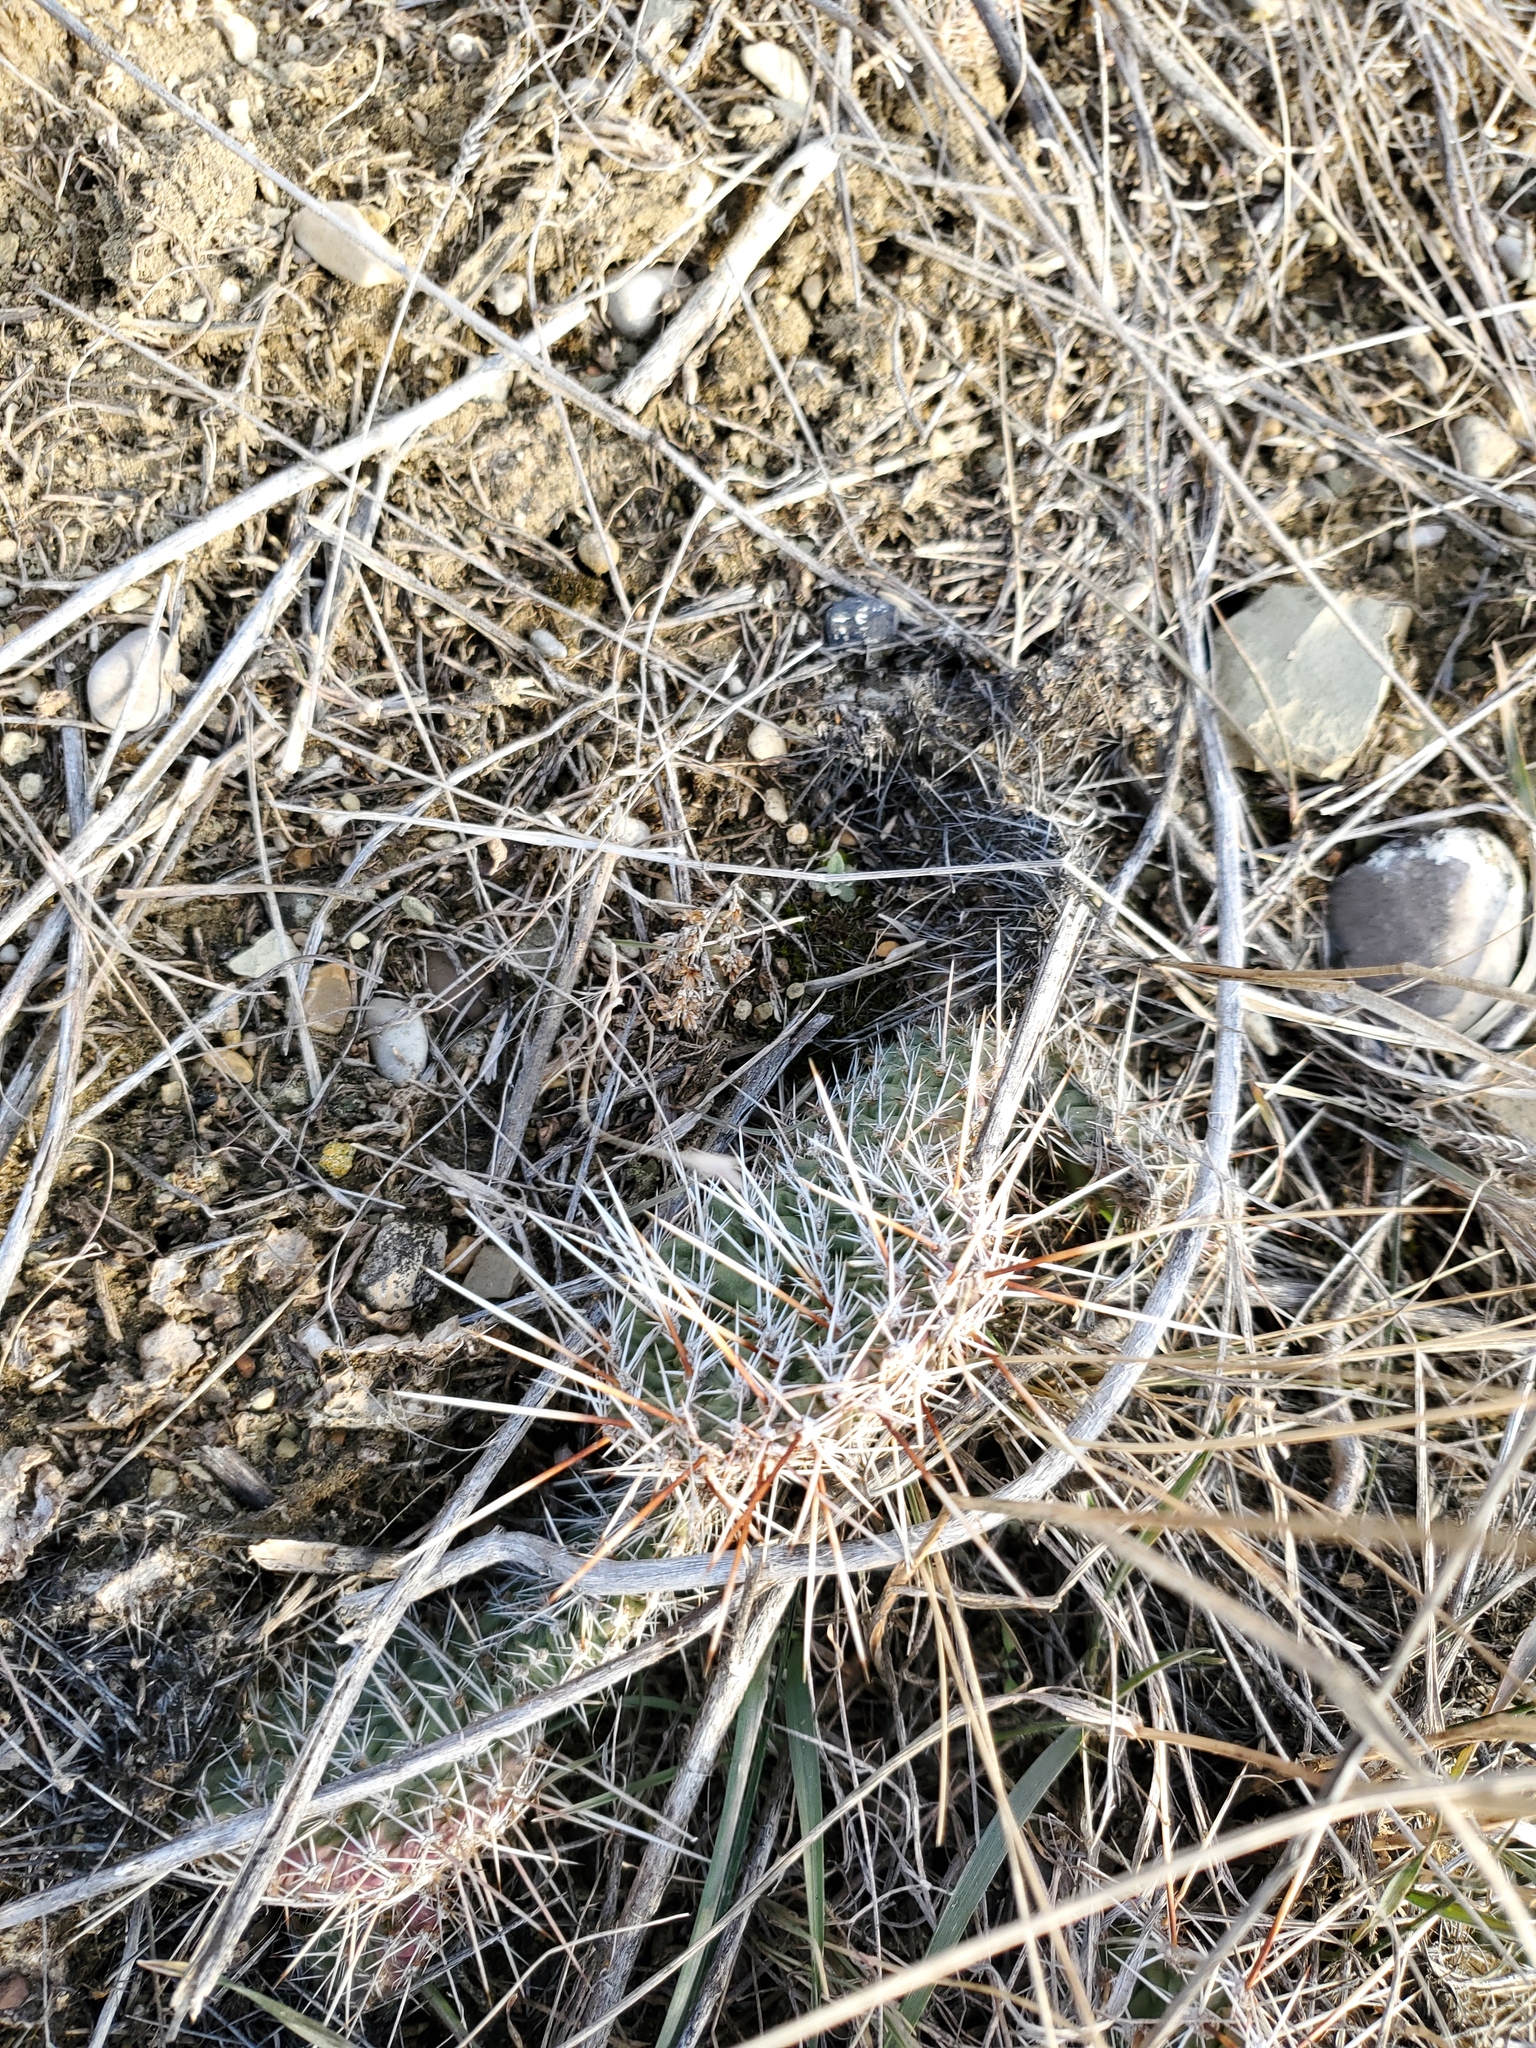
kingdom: Plantae
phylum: Tracheophyta
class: Magnoliopsida
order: Caryophyllales
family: Cactaceae
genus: Opuntia
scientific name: Opuntia polyacantha
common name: Plains prickly-pear
